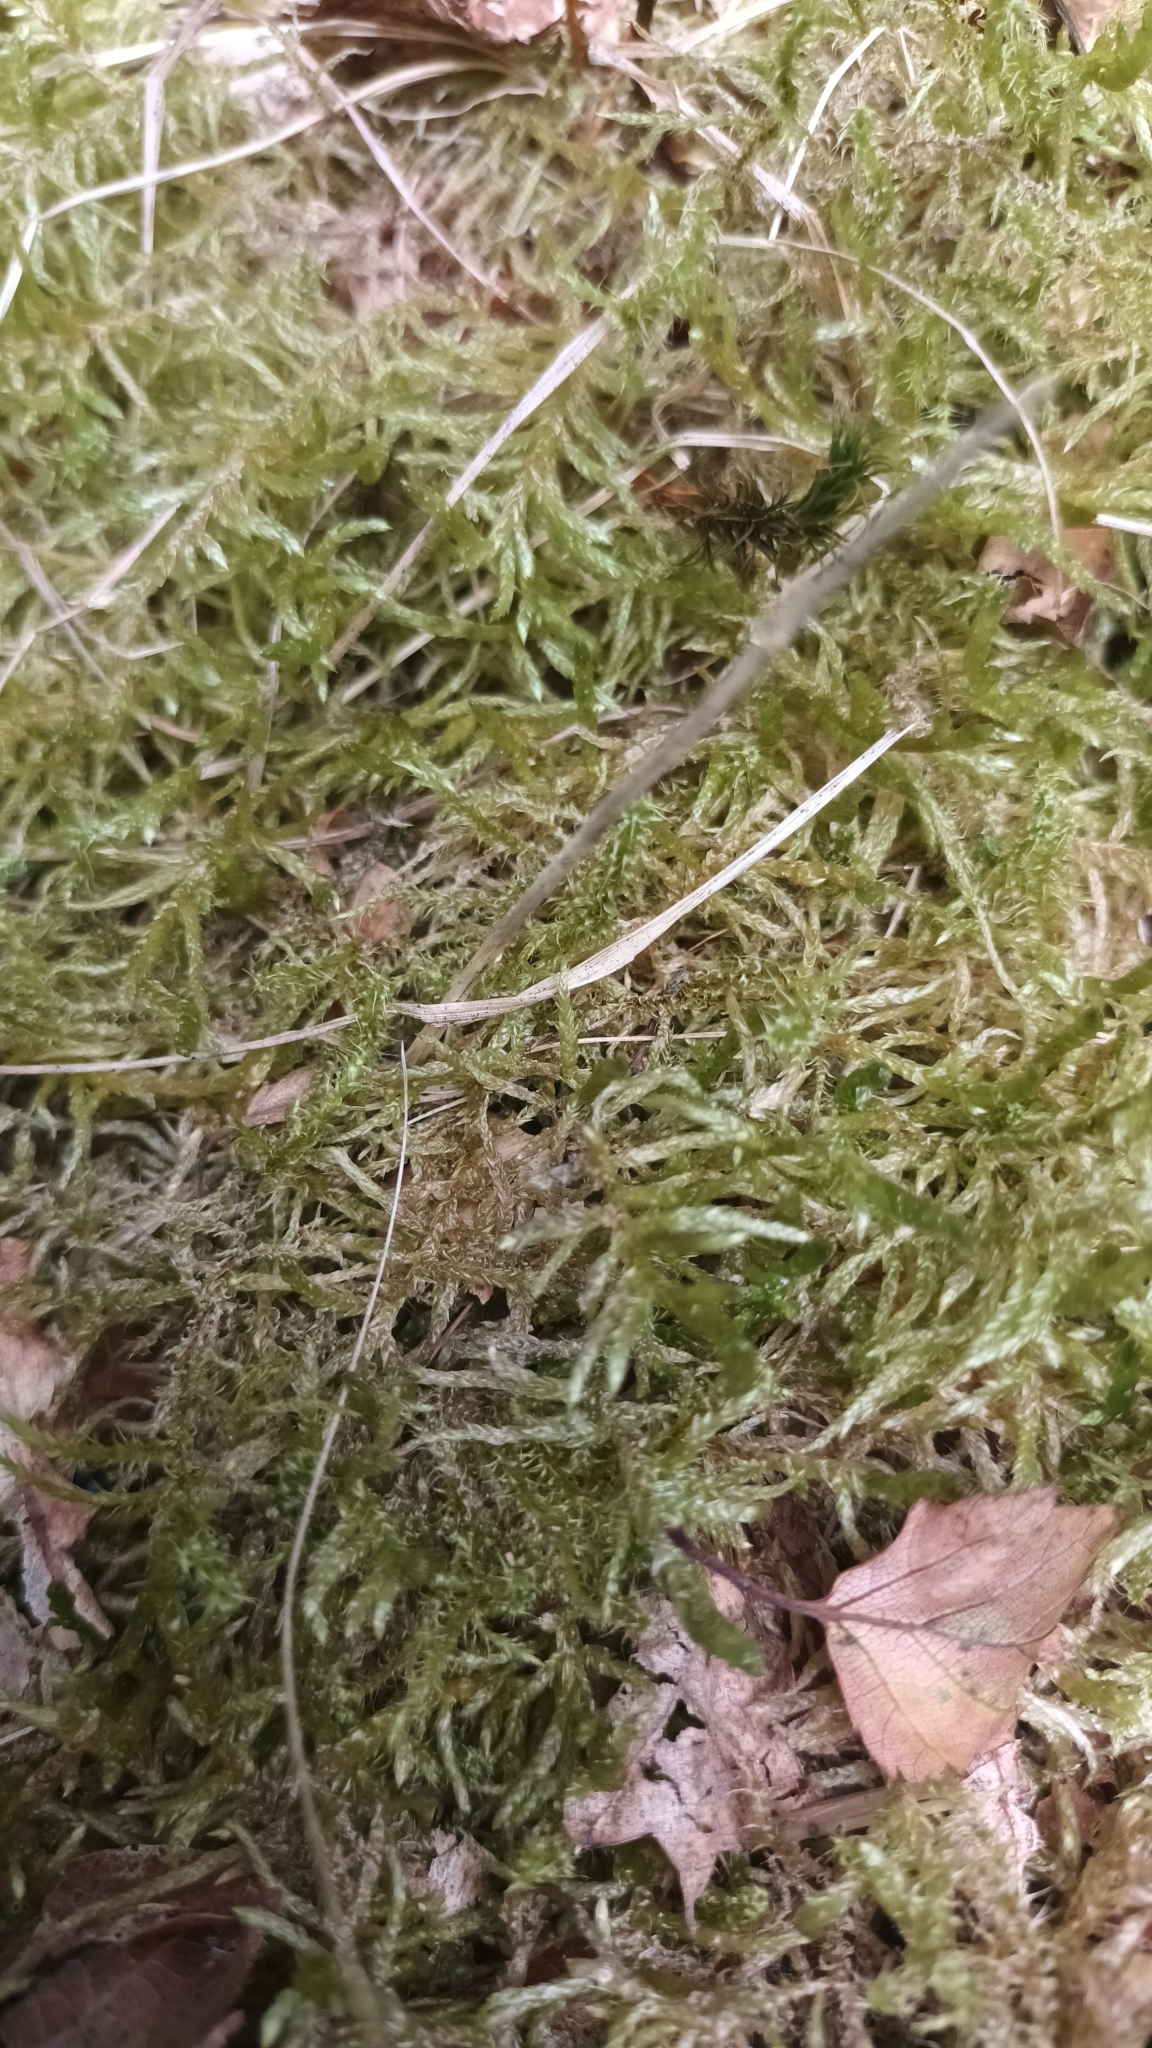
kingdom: Plantae
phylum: Bryophyta
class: Bryopsida
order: Hypnales
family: Brachytheciaceae
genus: Pseudoscleropodium
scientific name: Pseudoscleropodium purum
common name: Neat feather-moss
